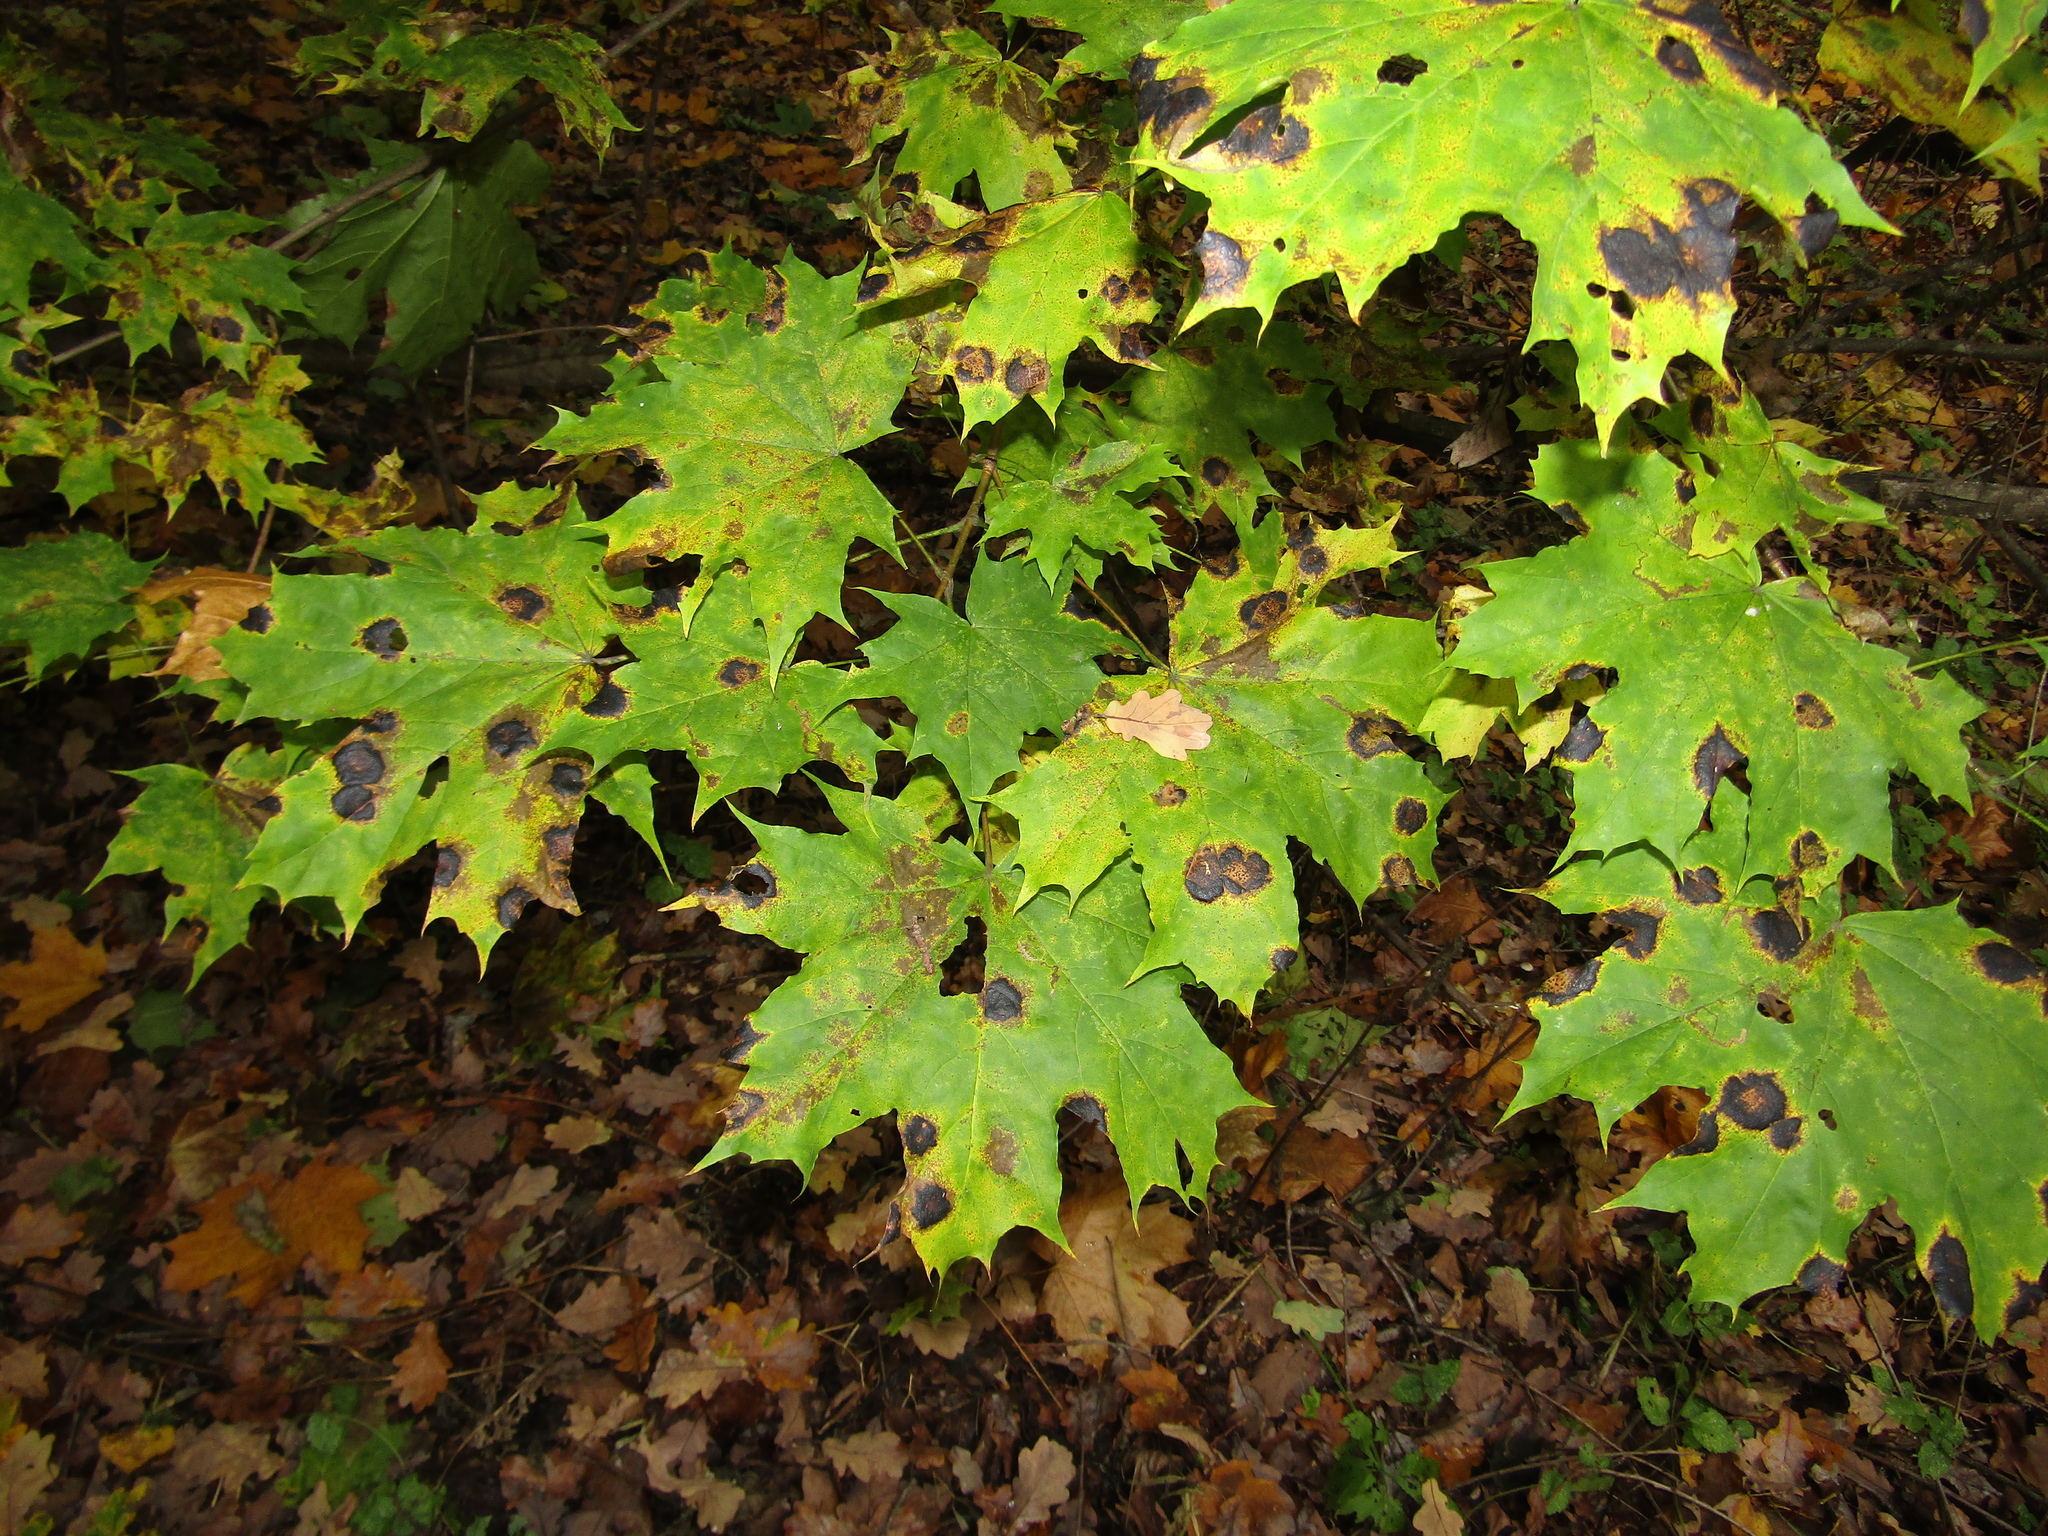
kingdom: Plantae
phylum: Tracheophyta
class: Magnoliopsida
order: Sapindales
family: Sapindaceae
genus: Acer
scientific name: Acer platanoides
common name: Norway maple
